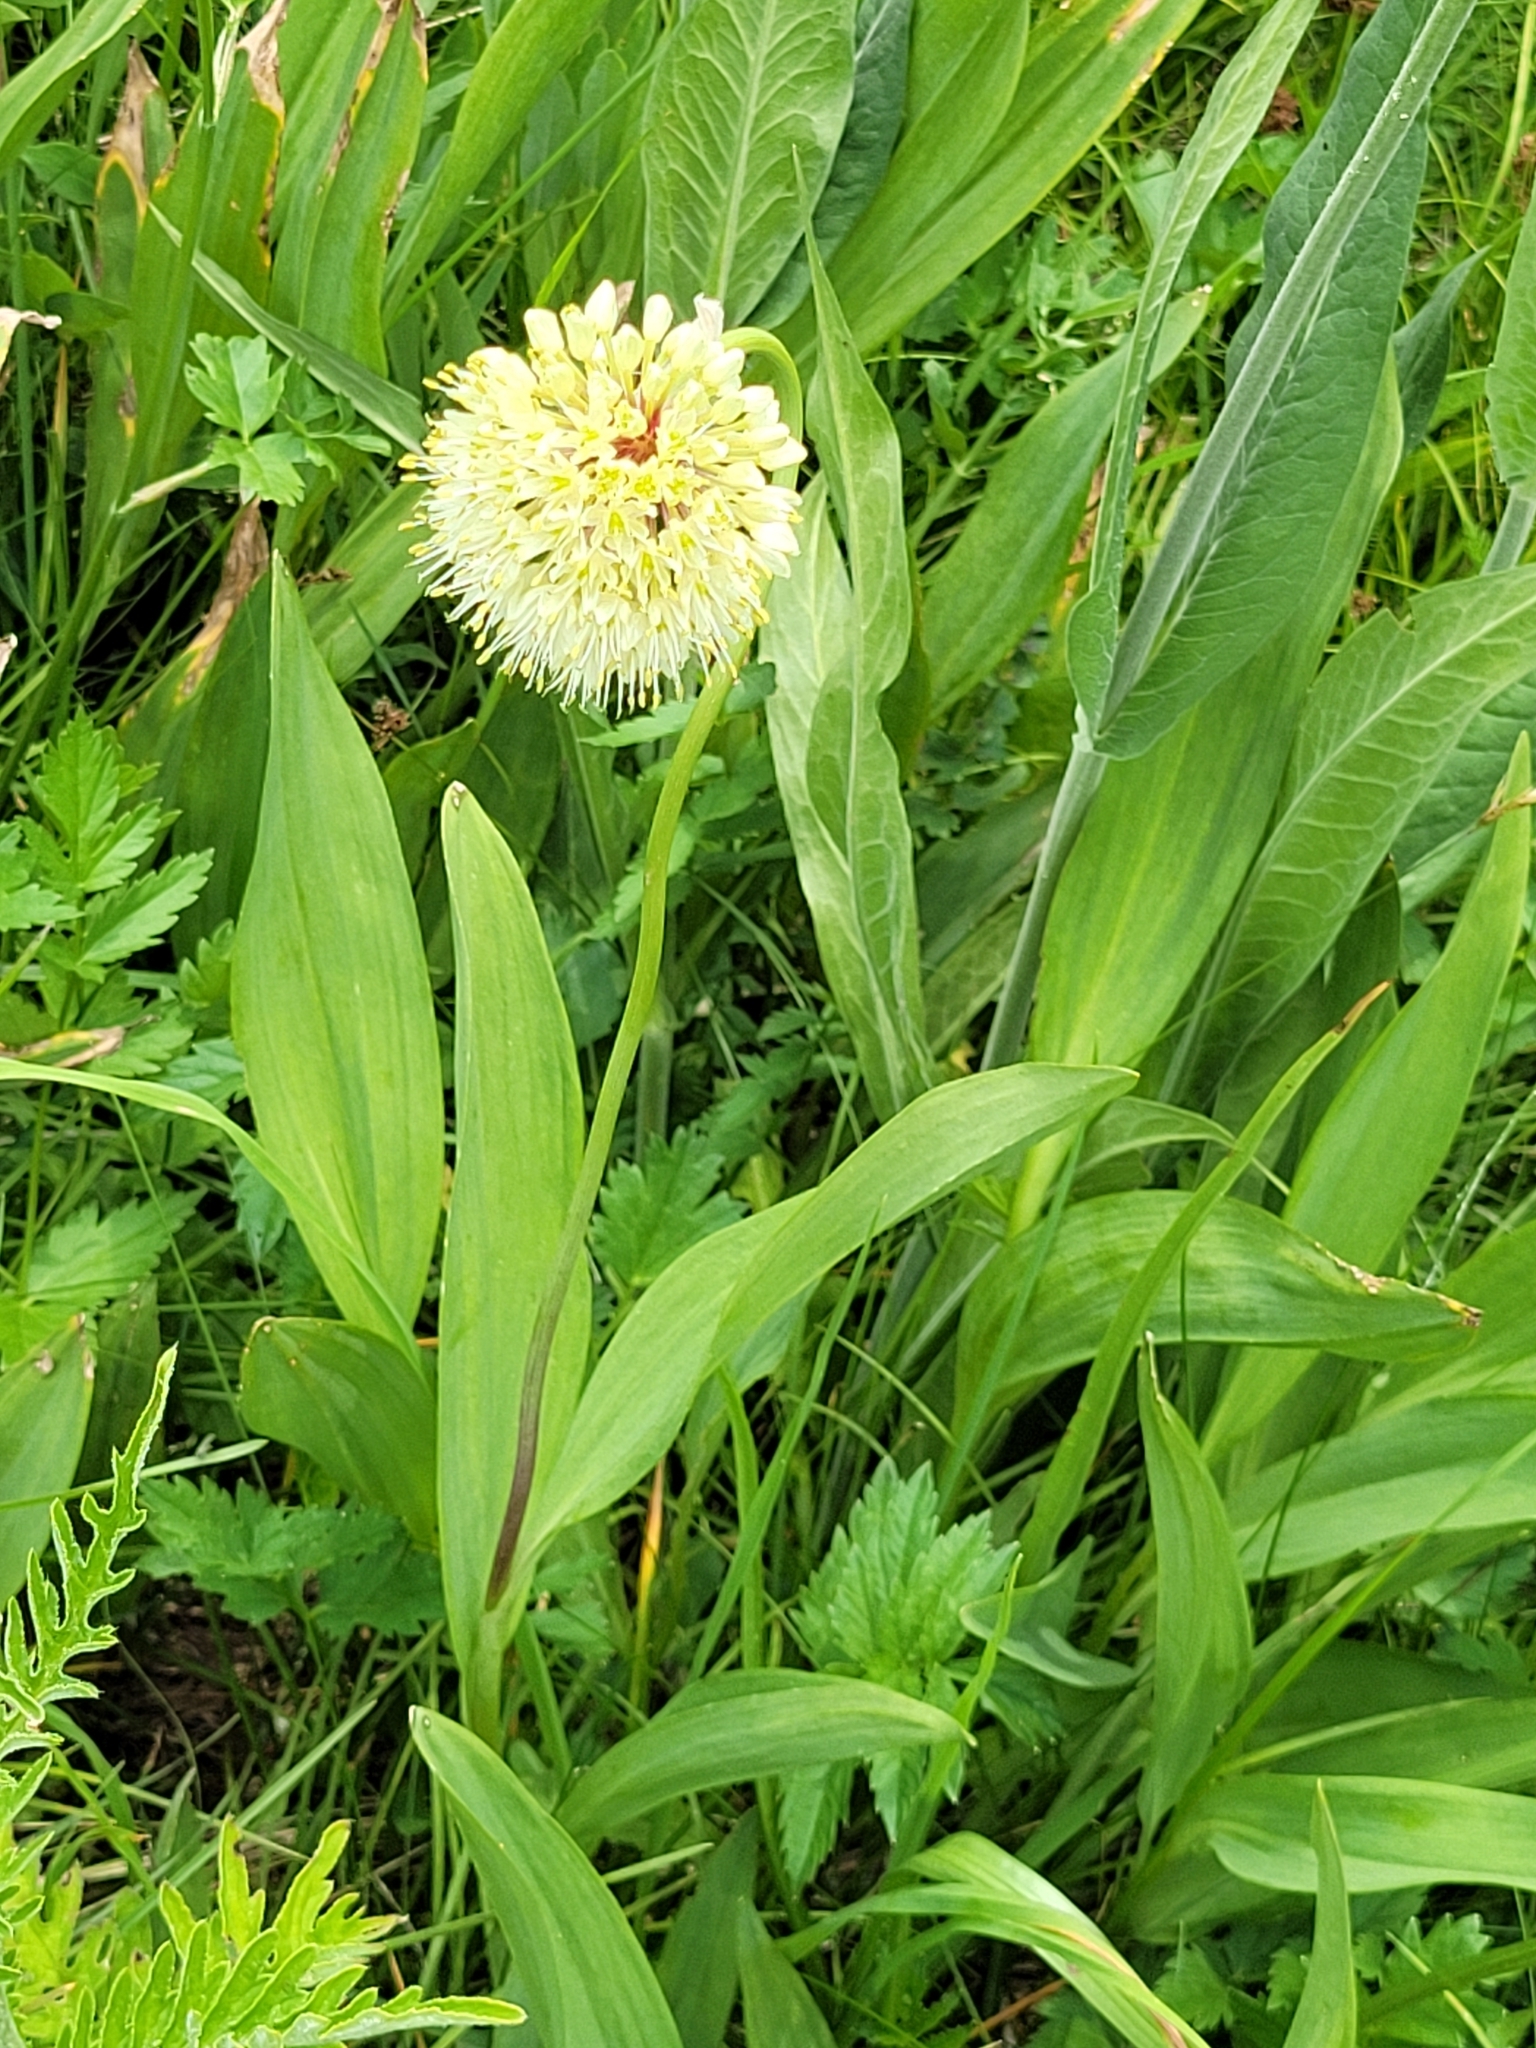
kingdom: Plantae
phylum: Tracheophyta
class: Liliopsida
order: Asparagales
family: Amaryllidaceae
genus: Allium
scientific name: Allium victorialis
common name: Alpine leek
